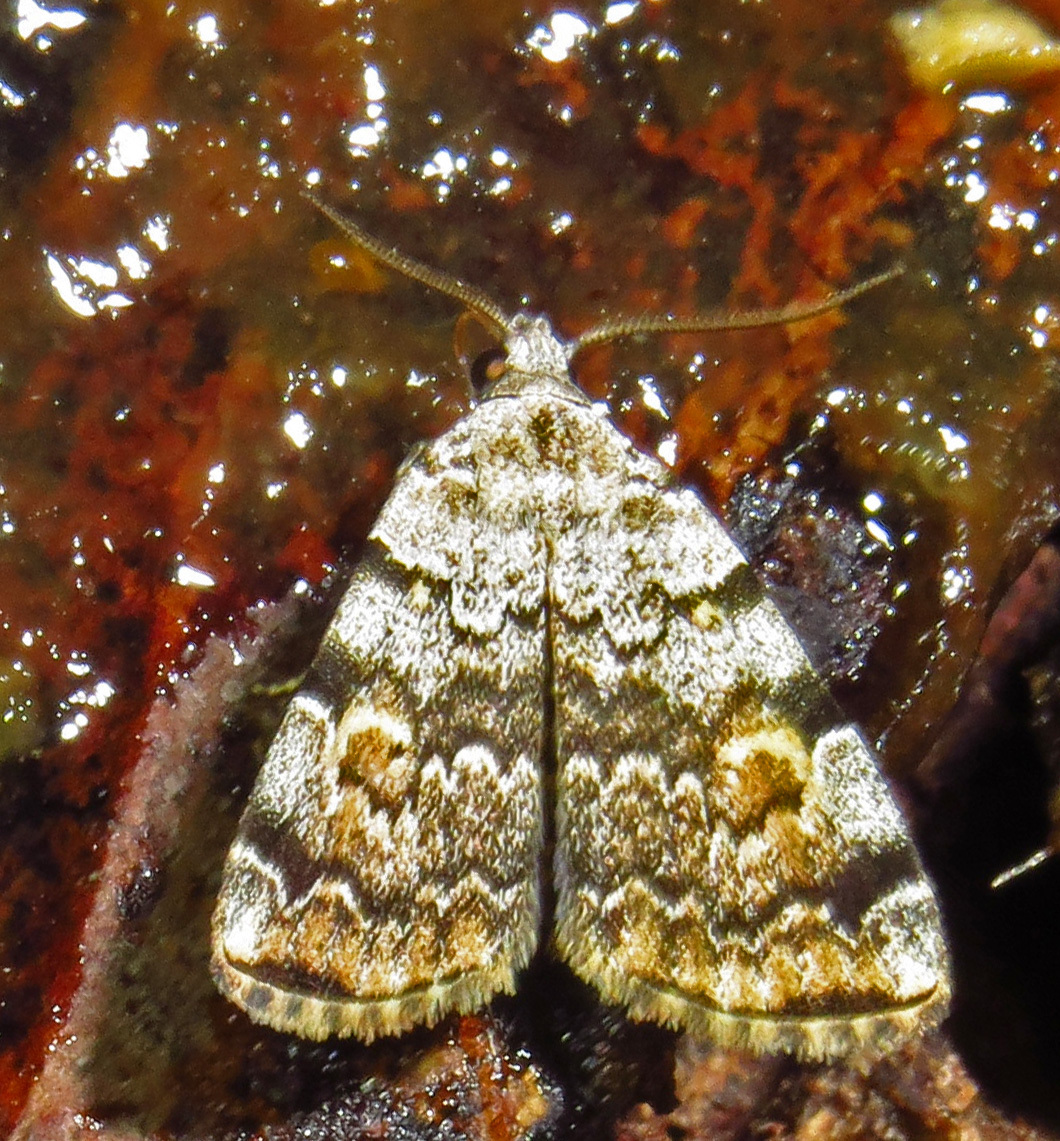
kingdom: Animalia
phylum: Arthropoda
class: Insecta
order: Lepidoptera
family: Erebidae
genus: Idia
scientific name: Idia americalis
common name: American idia moth
